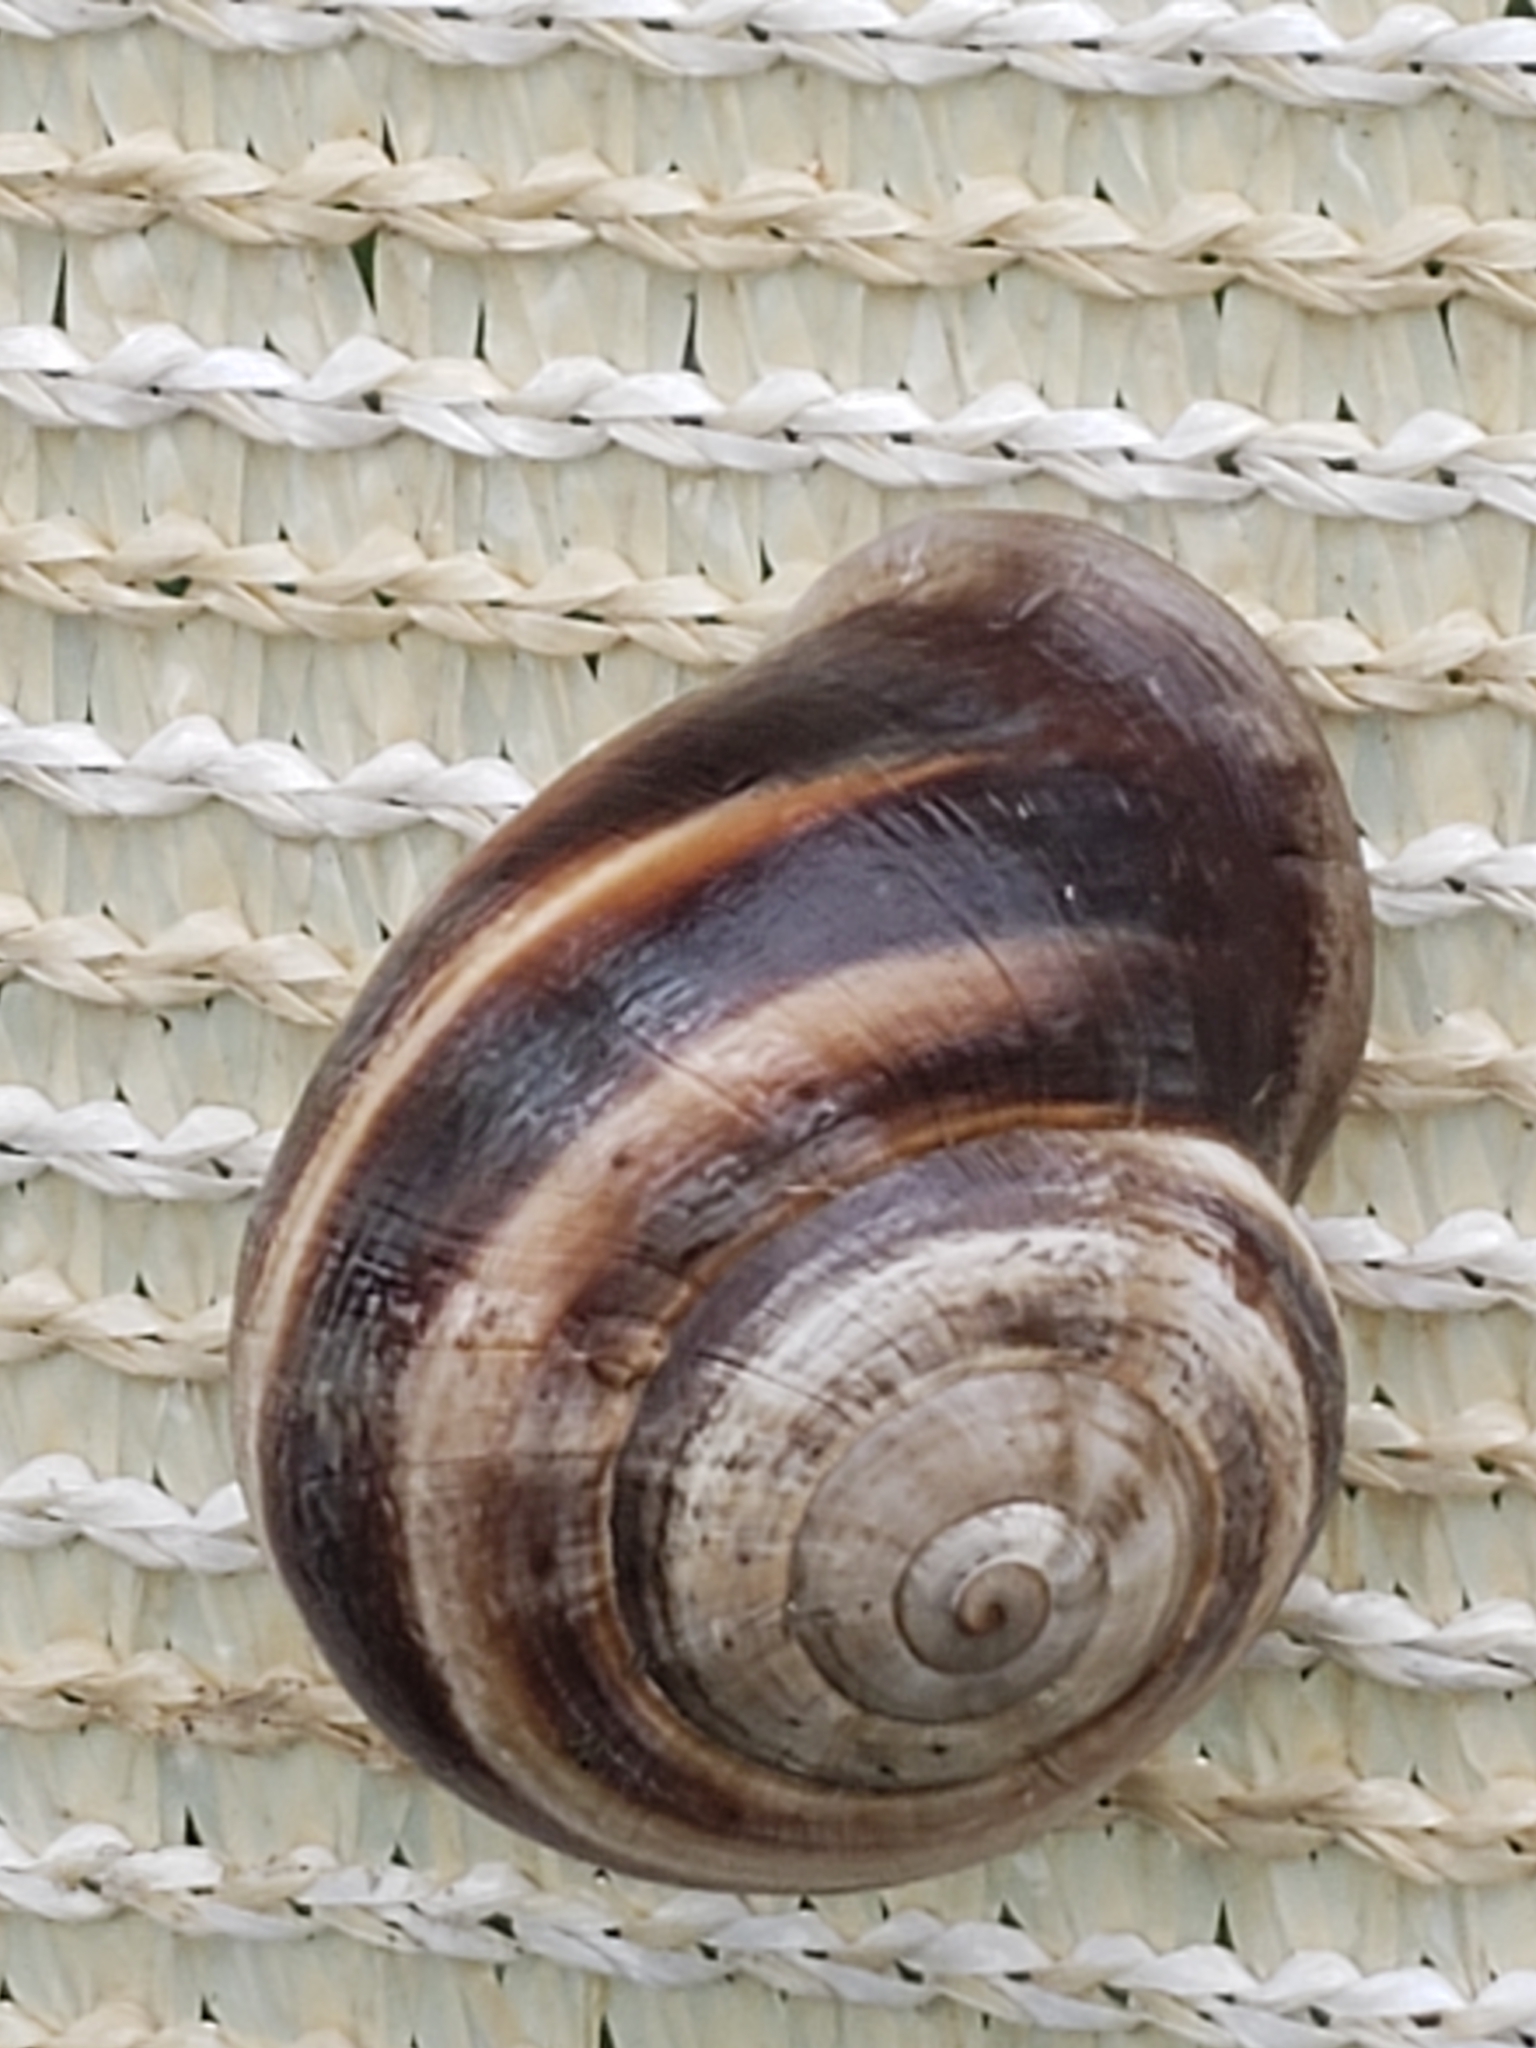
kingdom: Animalia
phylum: Mollusca
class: Gastropoda
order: Stylommatophora
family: Helicidae
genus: Otala
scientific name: Otala lactea
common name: Milk snail
